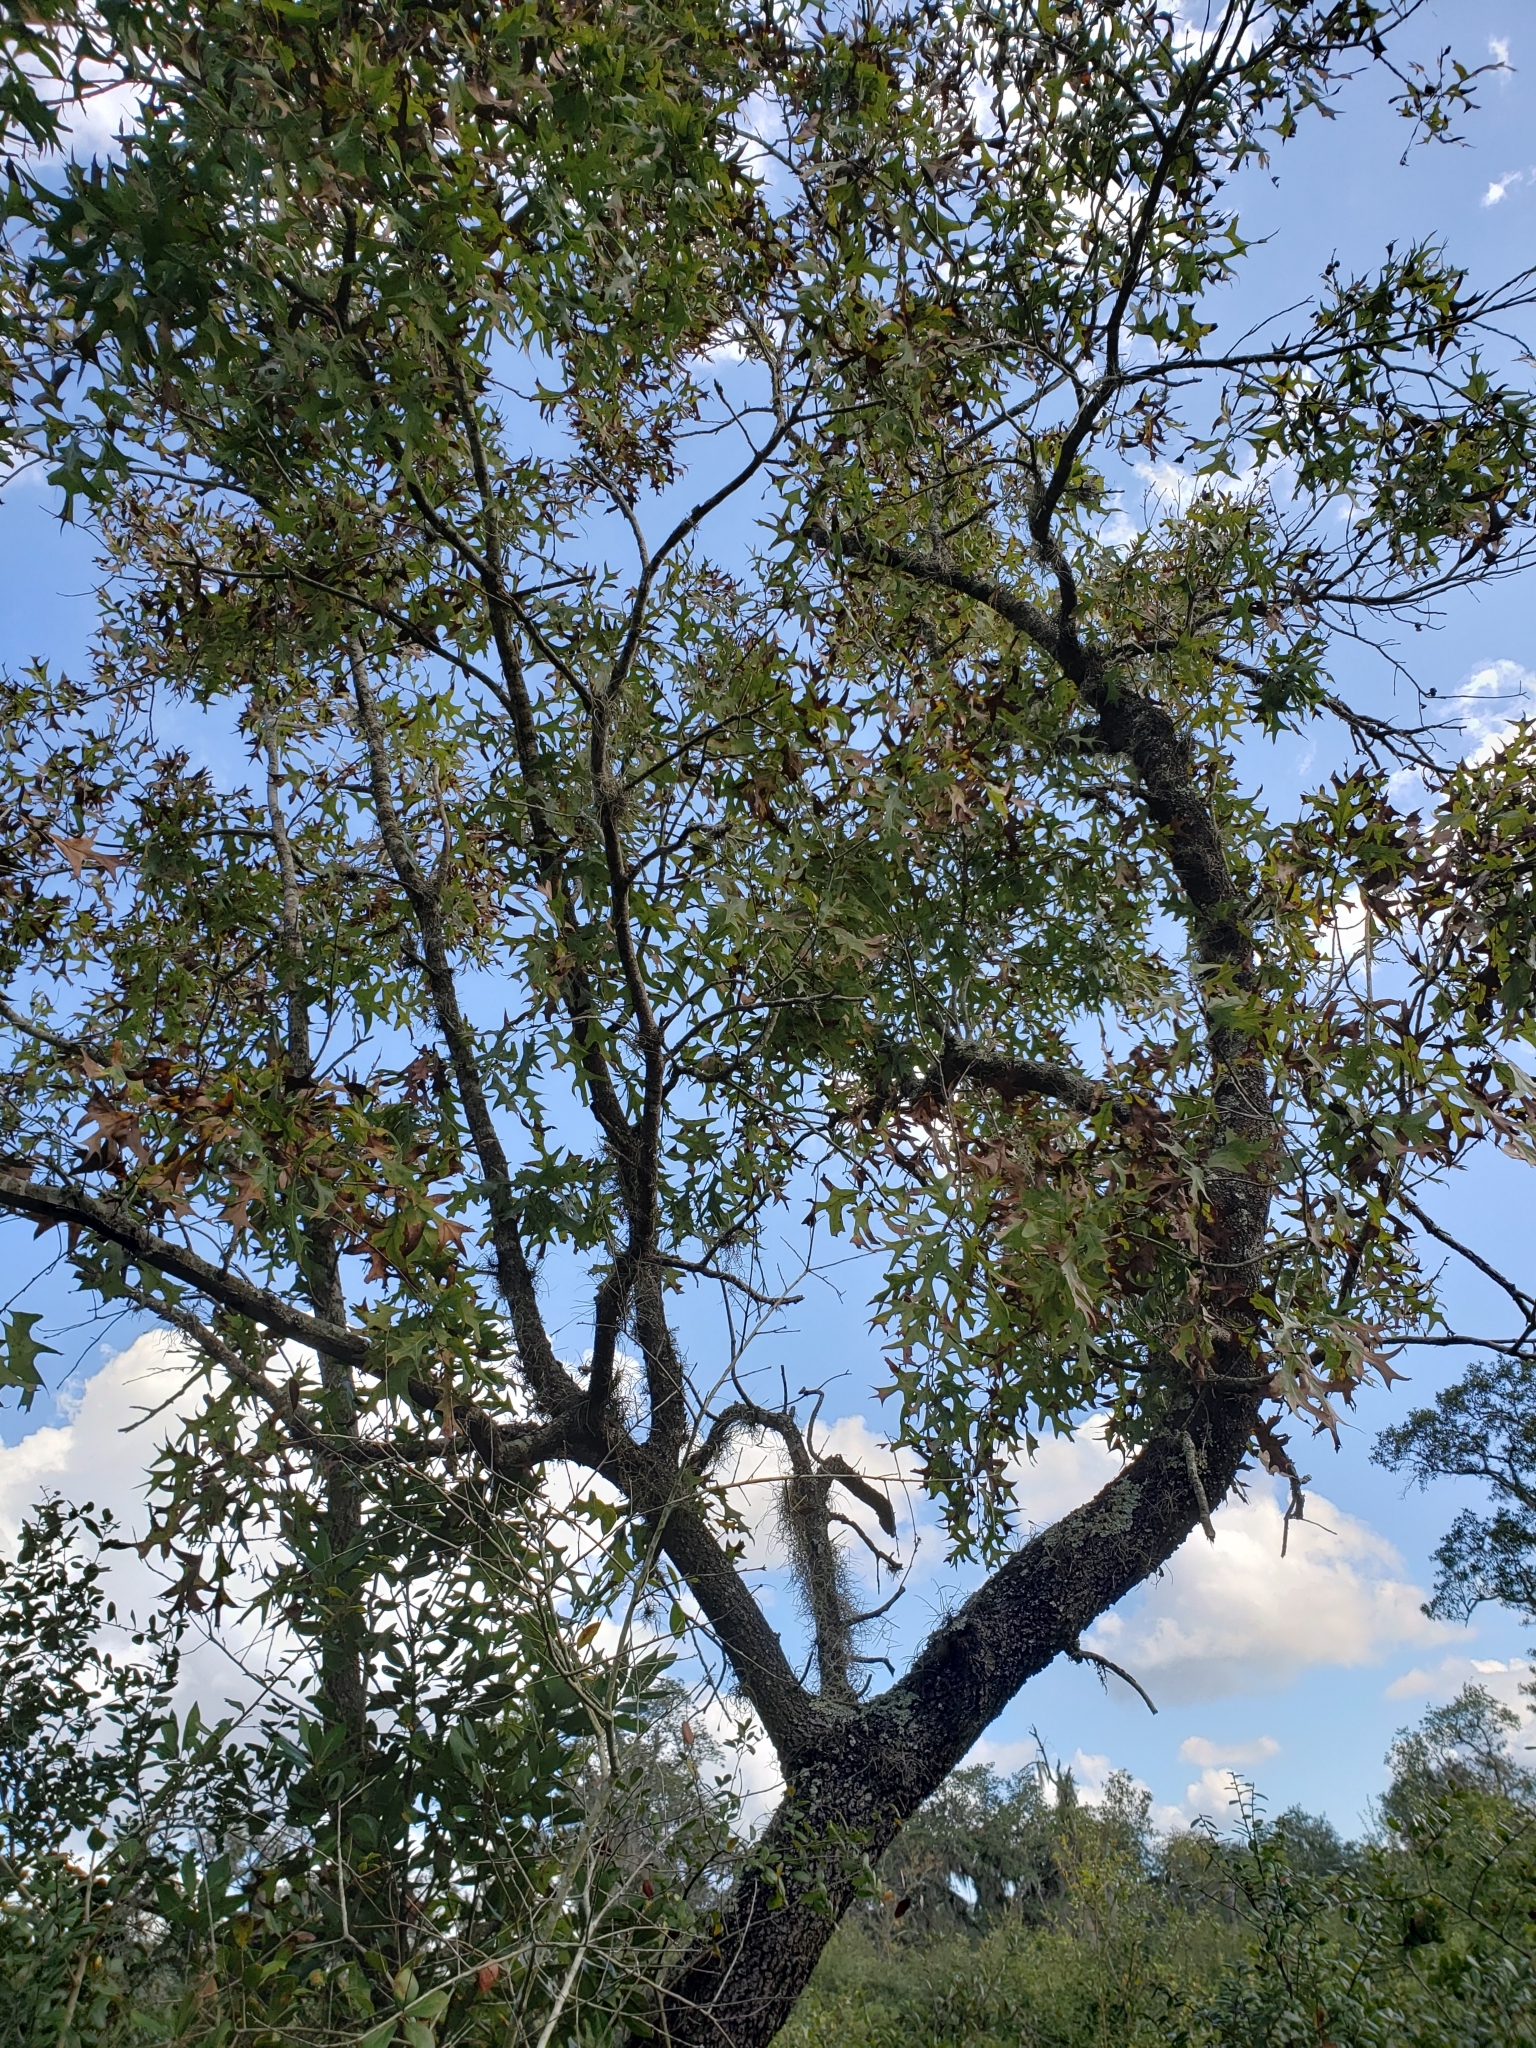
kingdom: Plantae
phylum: Tracheophyta
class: Magnoliopsida
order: Fagales
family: Fagaceae
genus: Quercus
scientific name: Quercus laevis
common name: Turkey oak
